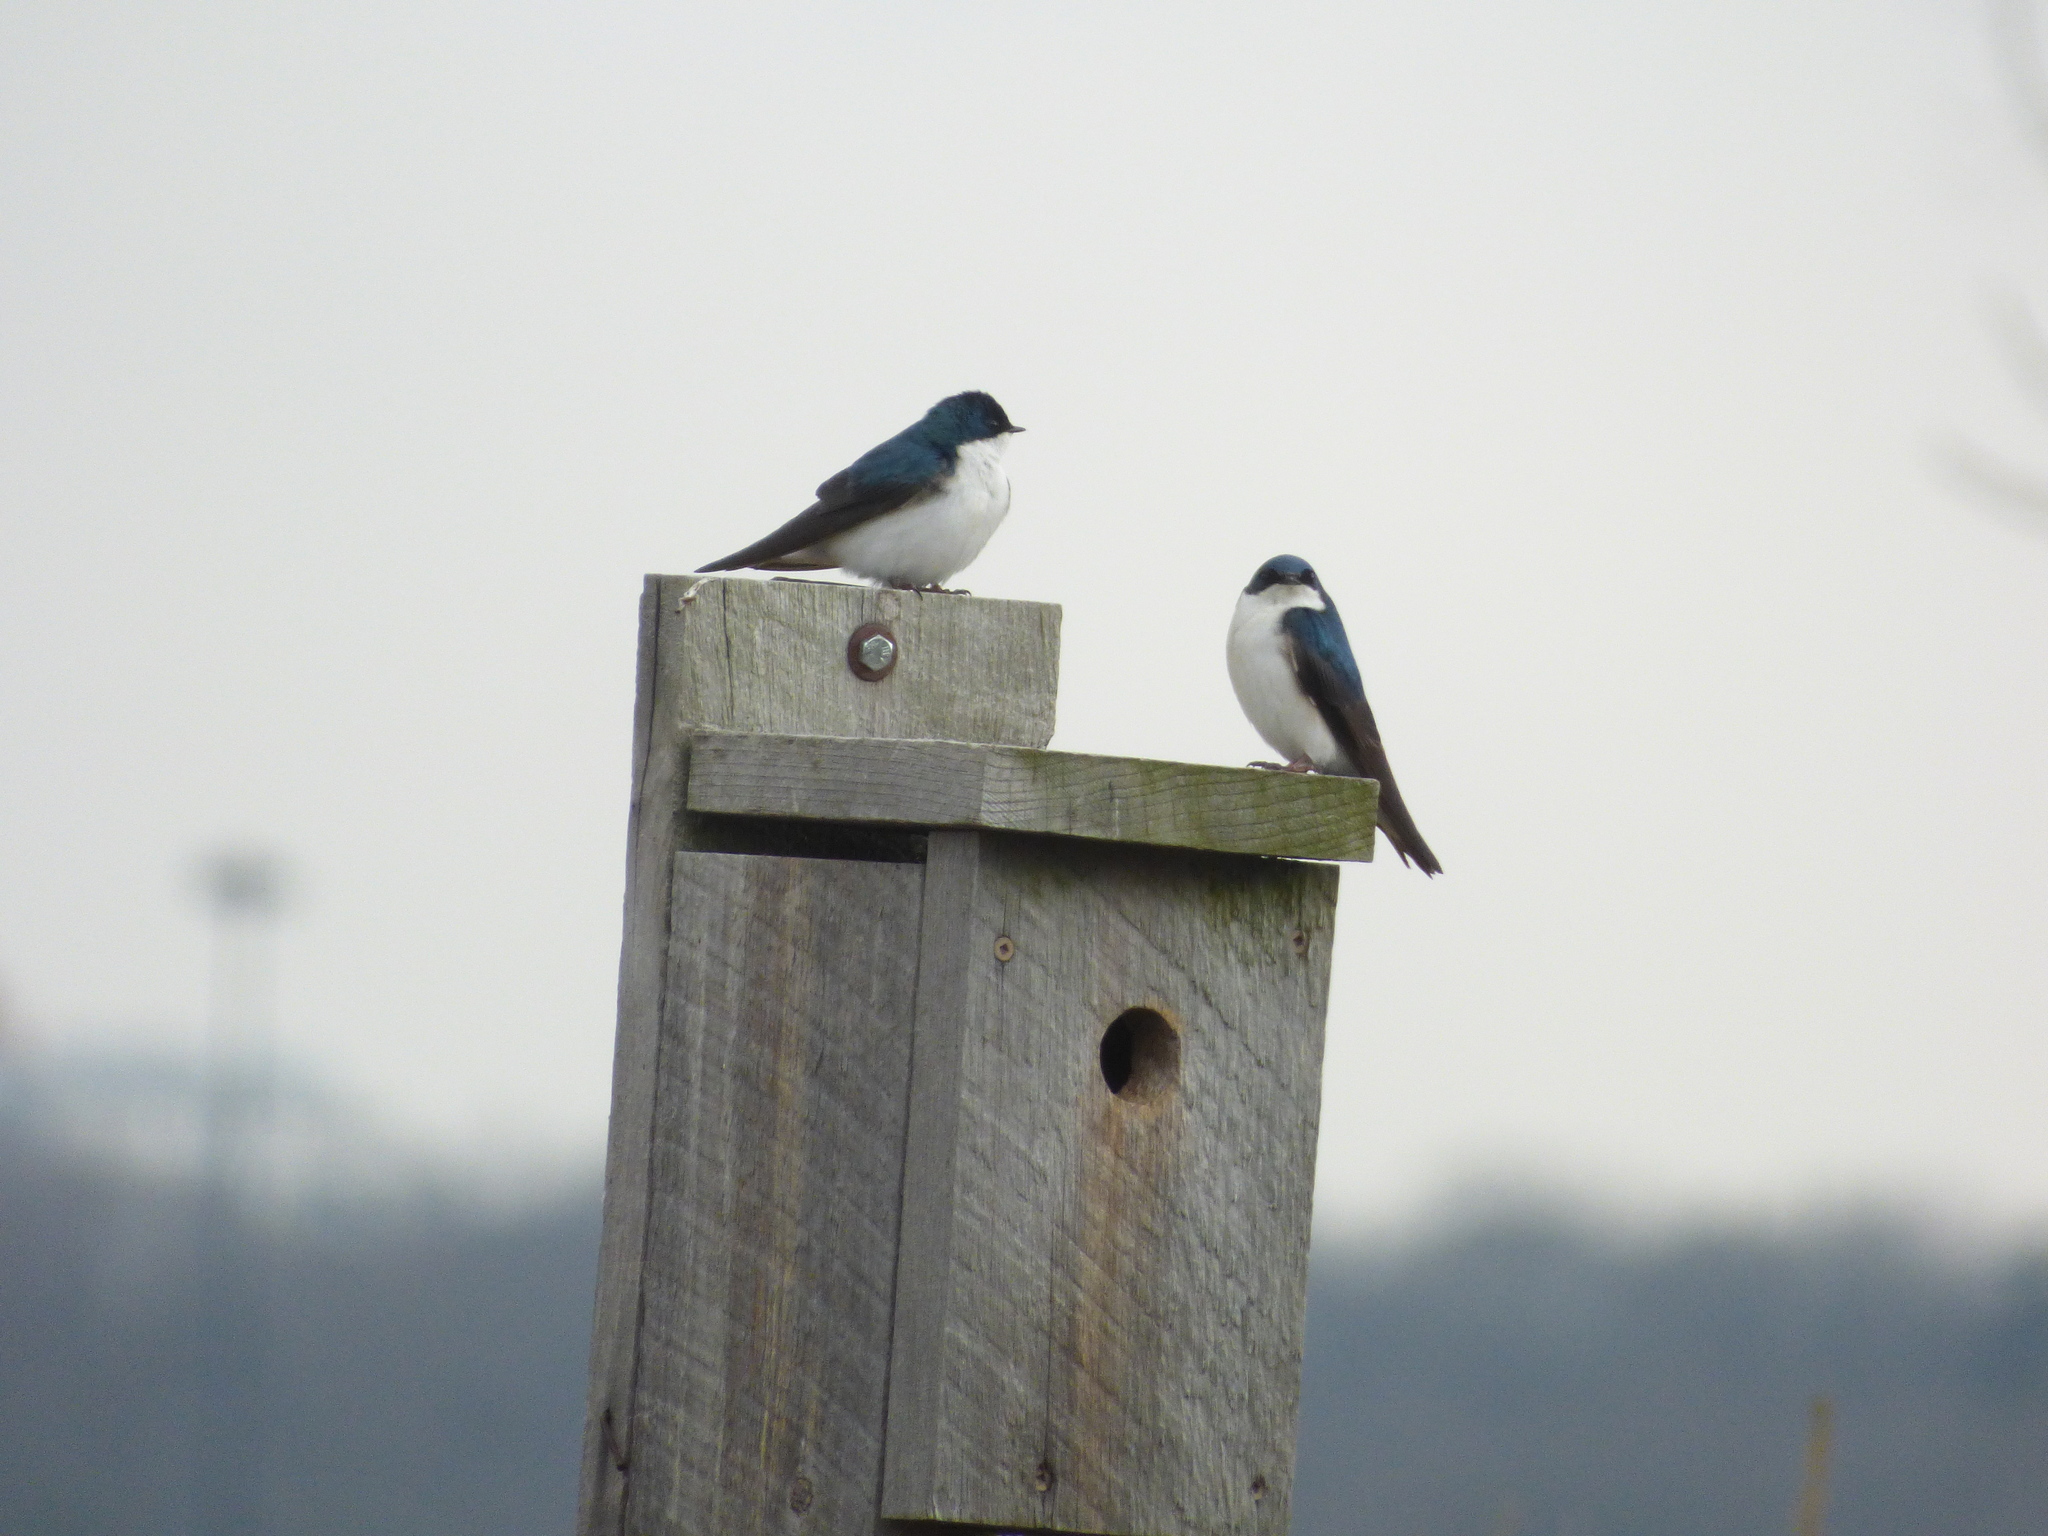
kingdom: Animalia
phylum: Chordata
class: Aves
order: Passeriformes
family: Hirundinidae
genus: Tachycineta
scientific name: Tachycineta bicolor
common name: Tree swallow
